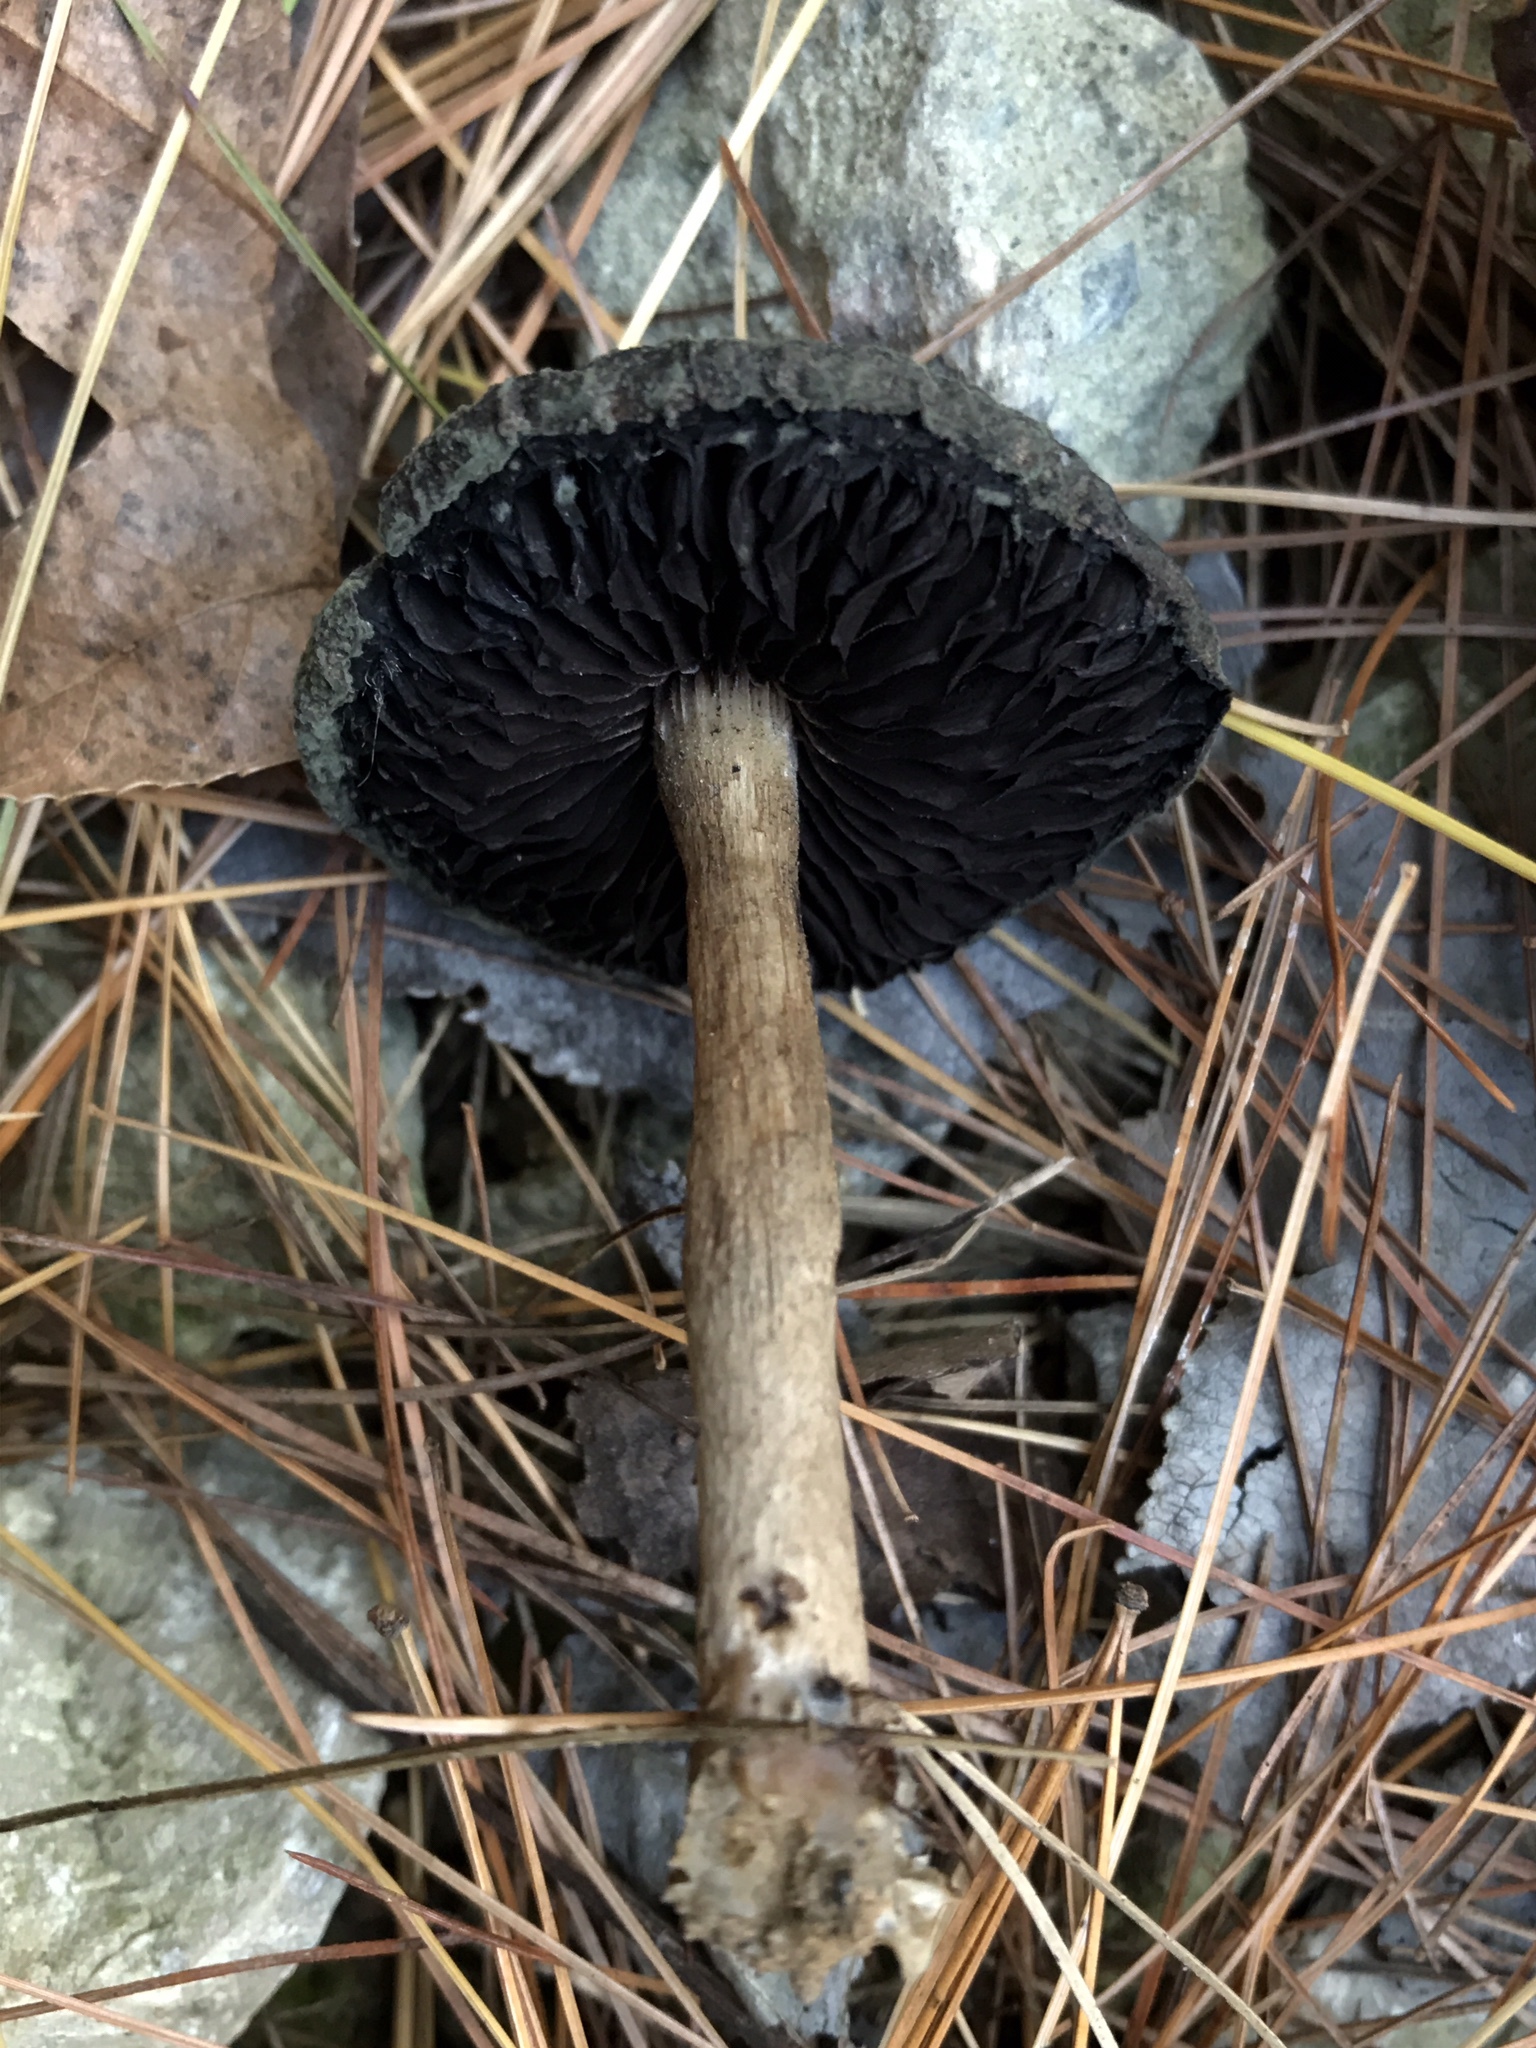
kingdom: Fungi
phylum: Basidiomycota
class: Agaricomycetes
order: Agaricales
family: Psathyrellaceae
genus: Lacrymaria
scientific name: Lacrymaria lacrymabunda
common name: Weeping widow
